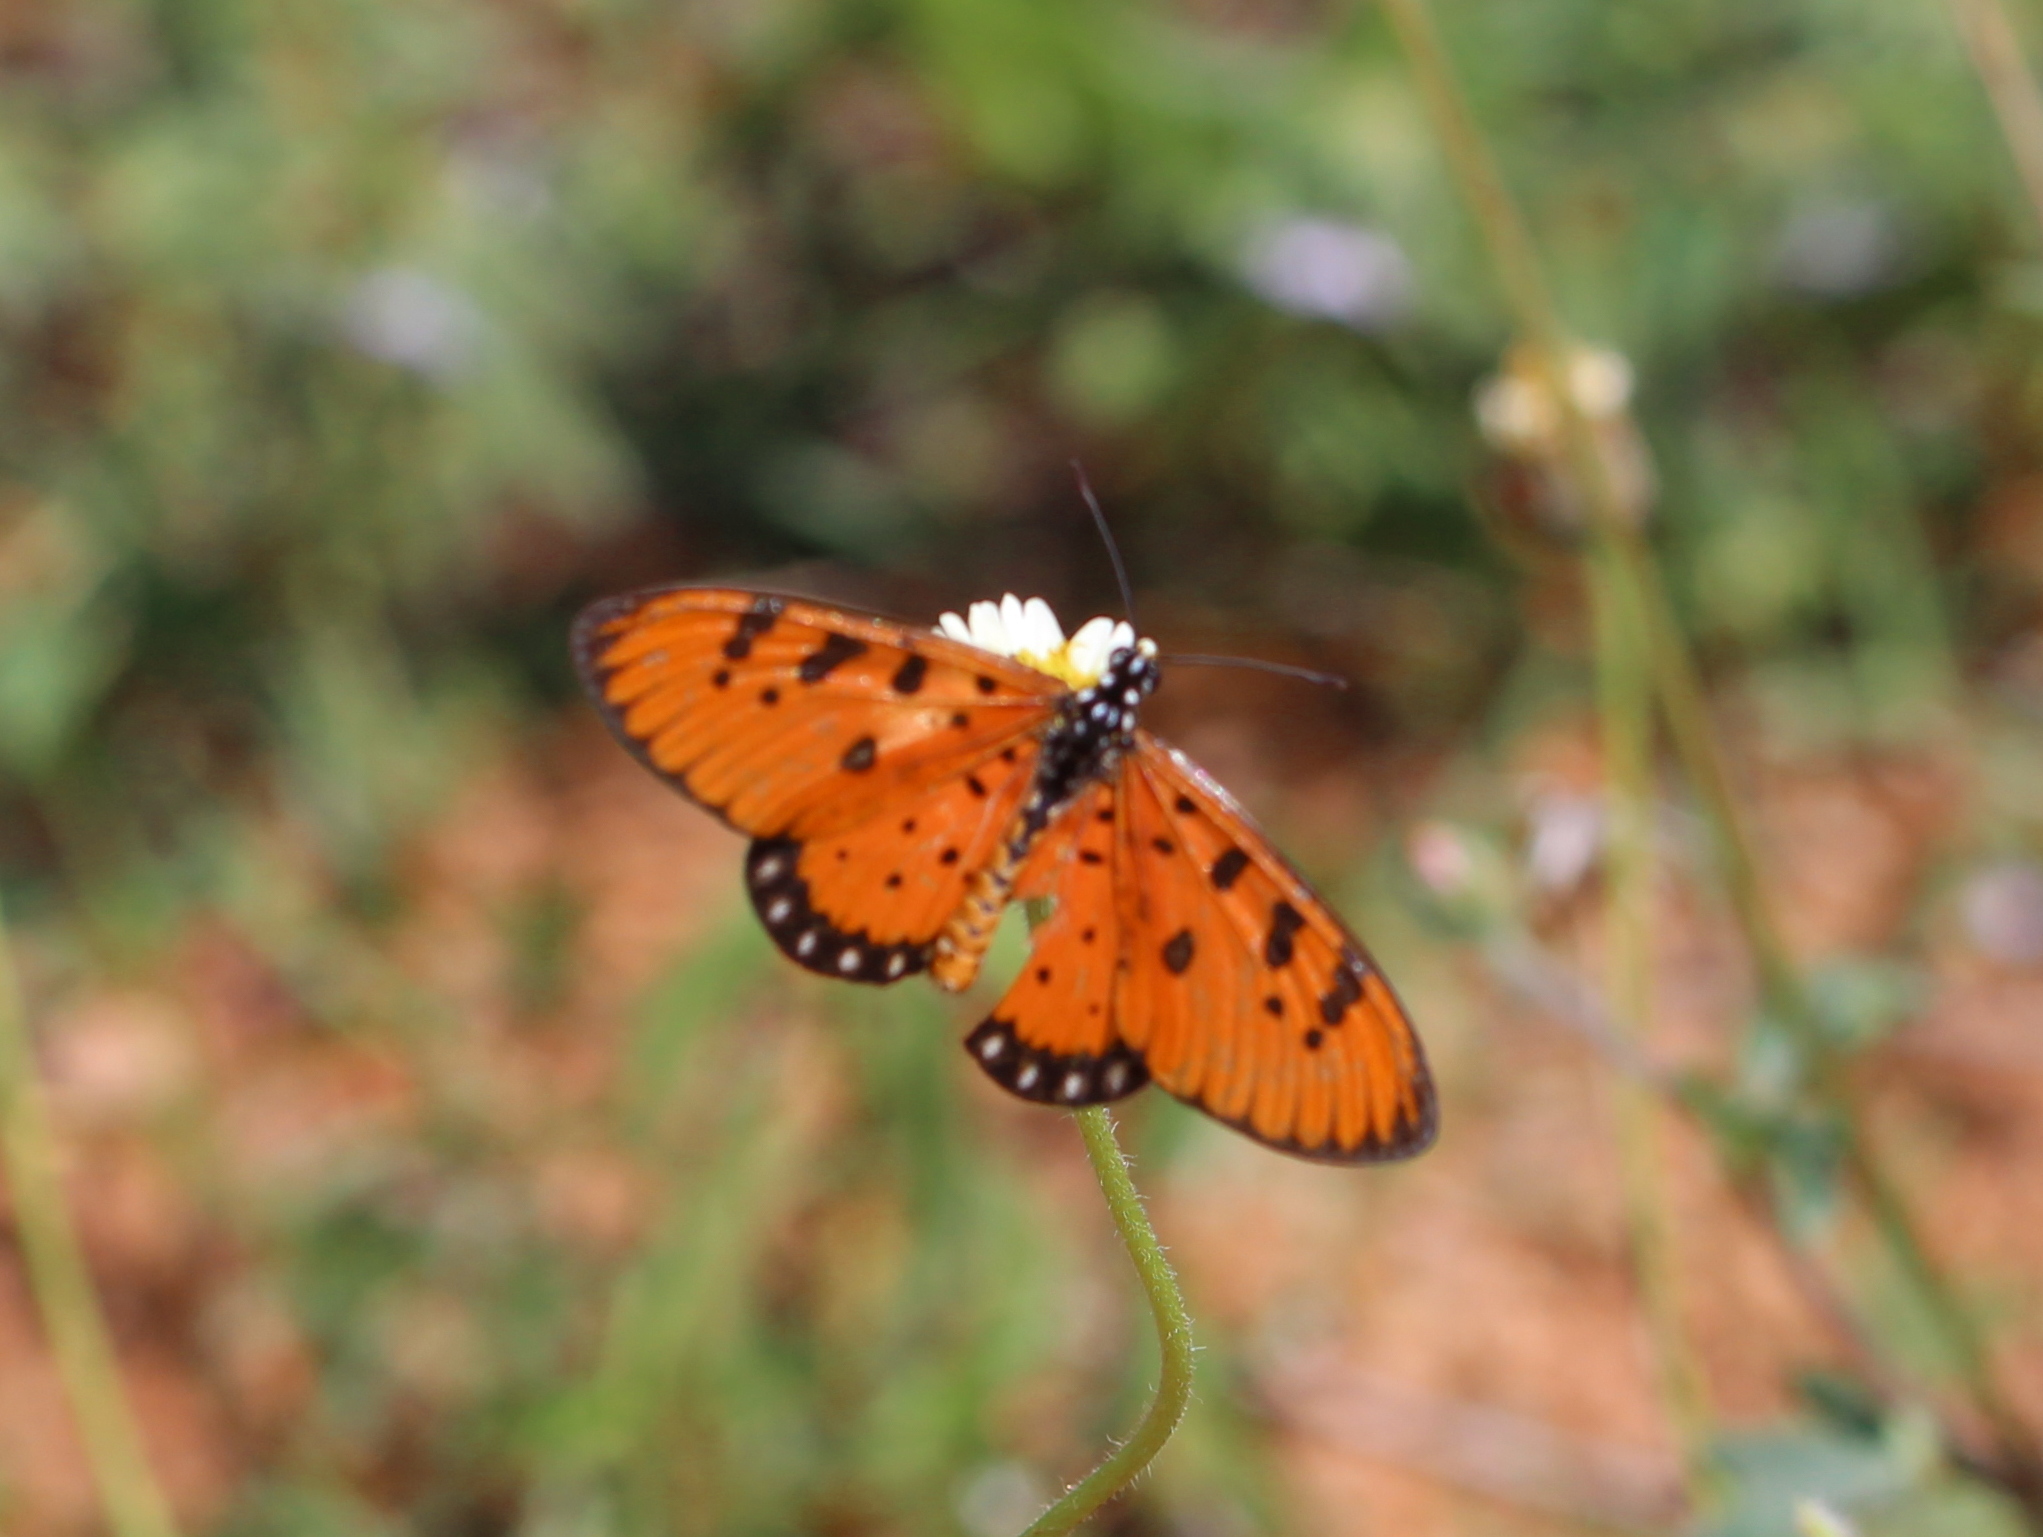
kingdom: Animalia
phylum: Arthropoda
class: Insecta
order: Lepidoptera
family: Nymphalidae
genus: Acraea
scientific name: Acraea terpsicore
